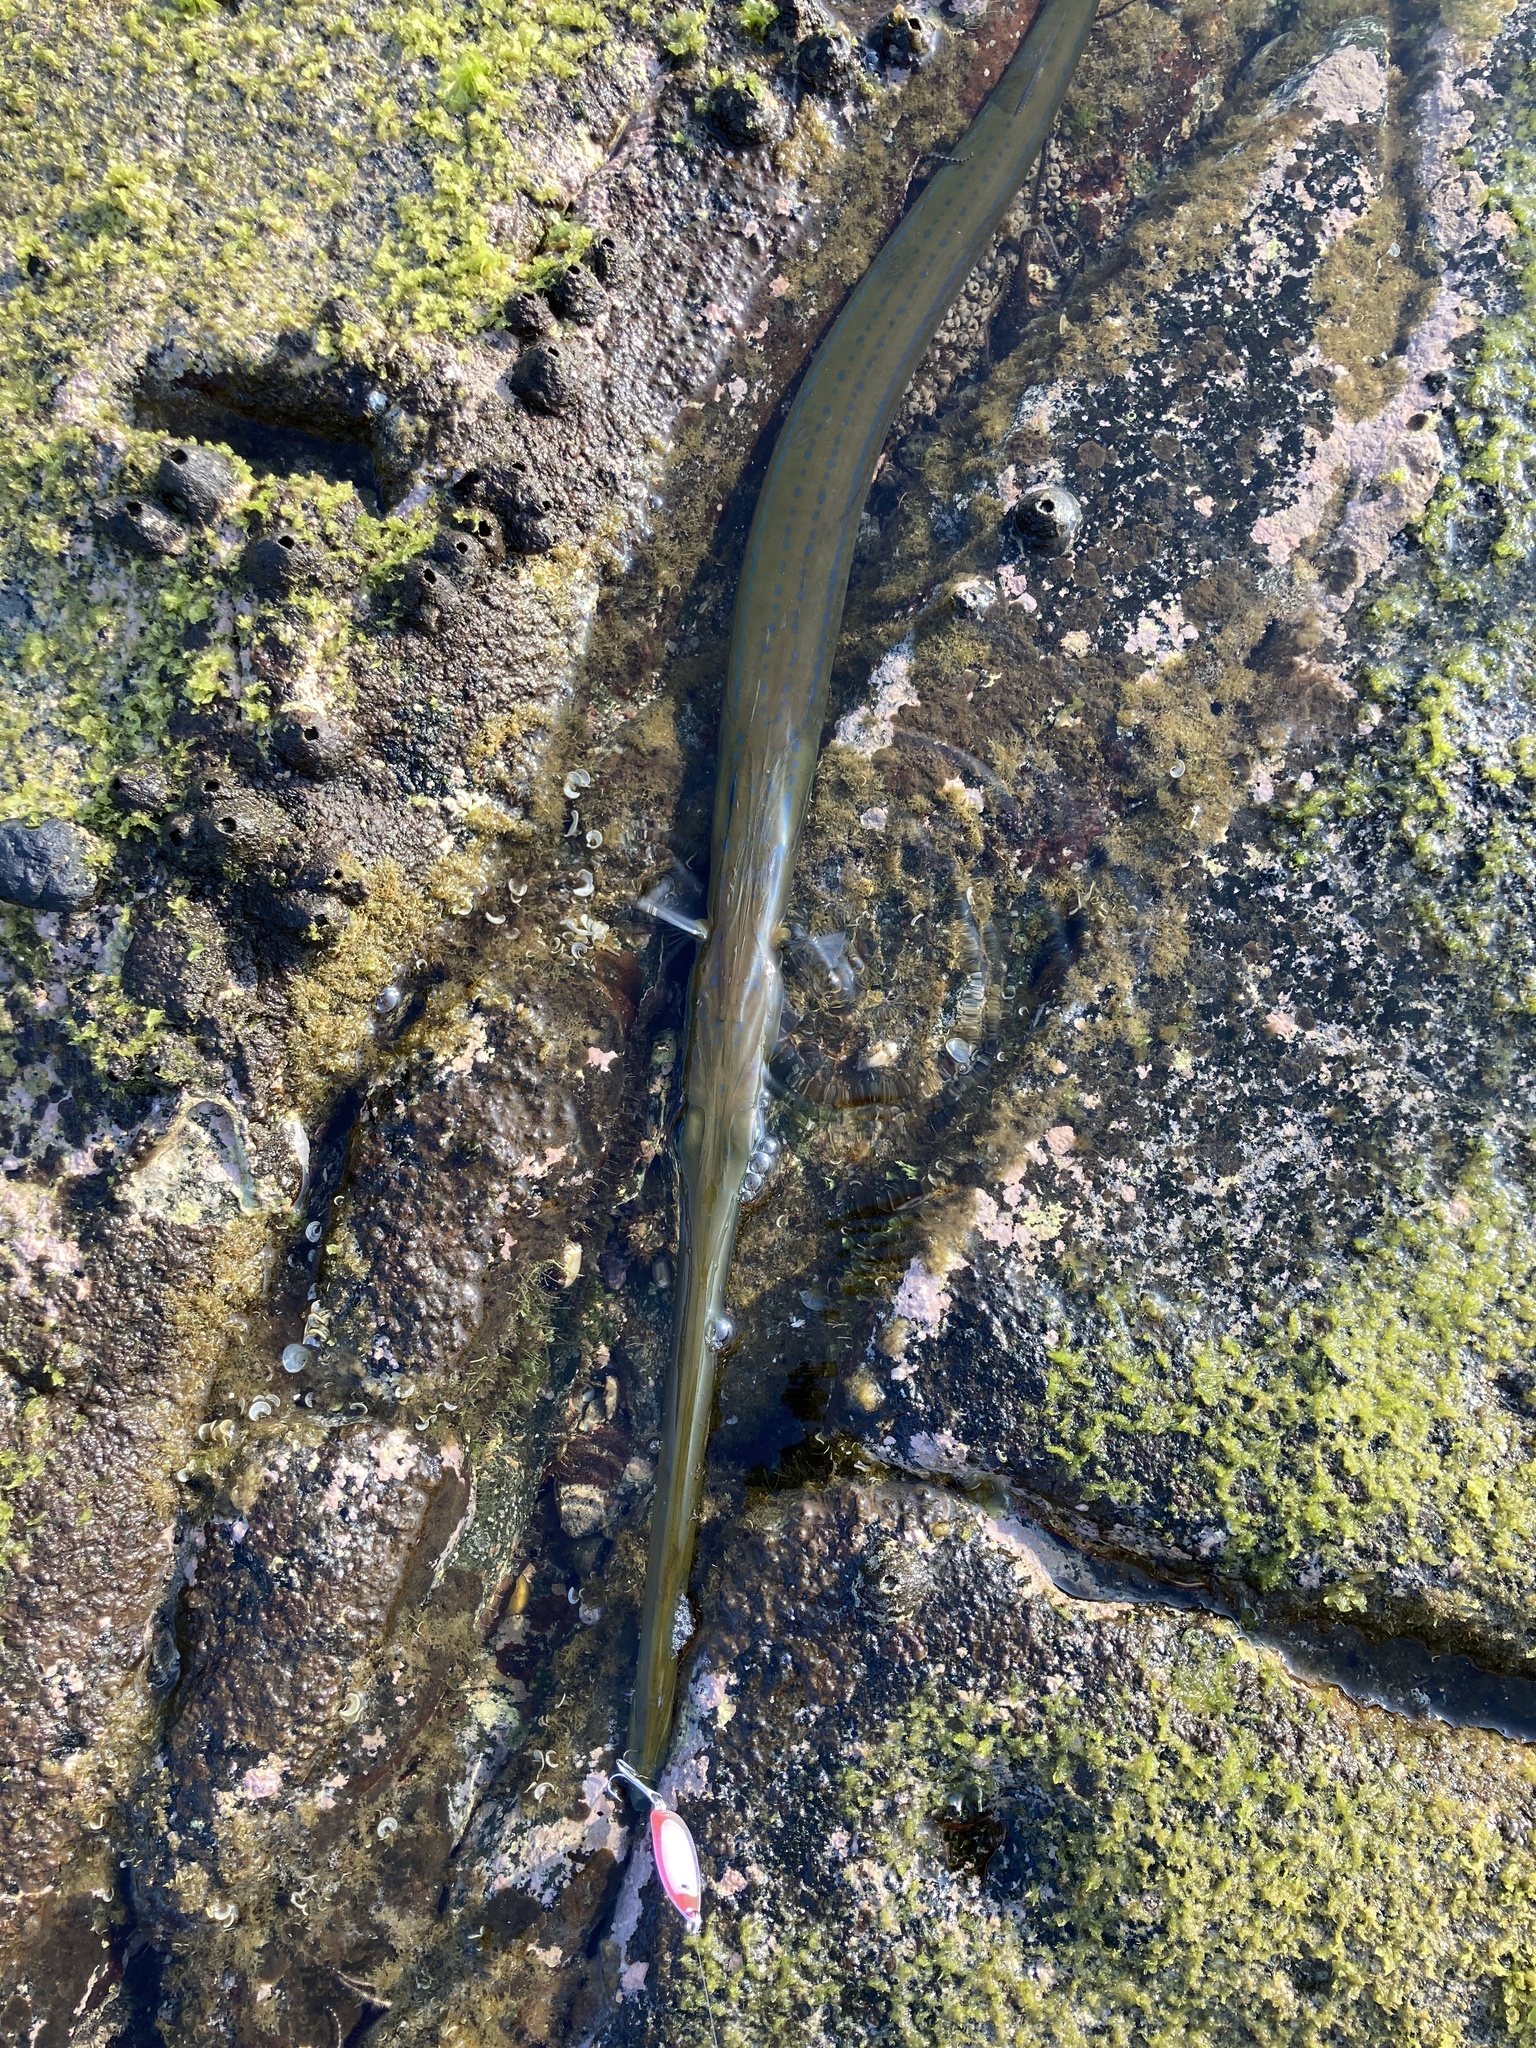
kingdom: Animalia
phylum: Chordata
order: Syngnathiformes
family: Fistulariidae
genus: Fistularia
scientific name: Fistularia commersonii
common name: Bluespotted cornetfish
